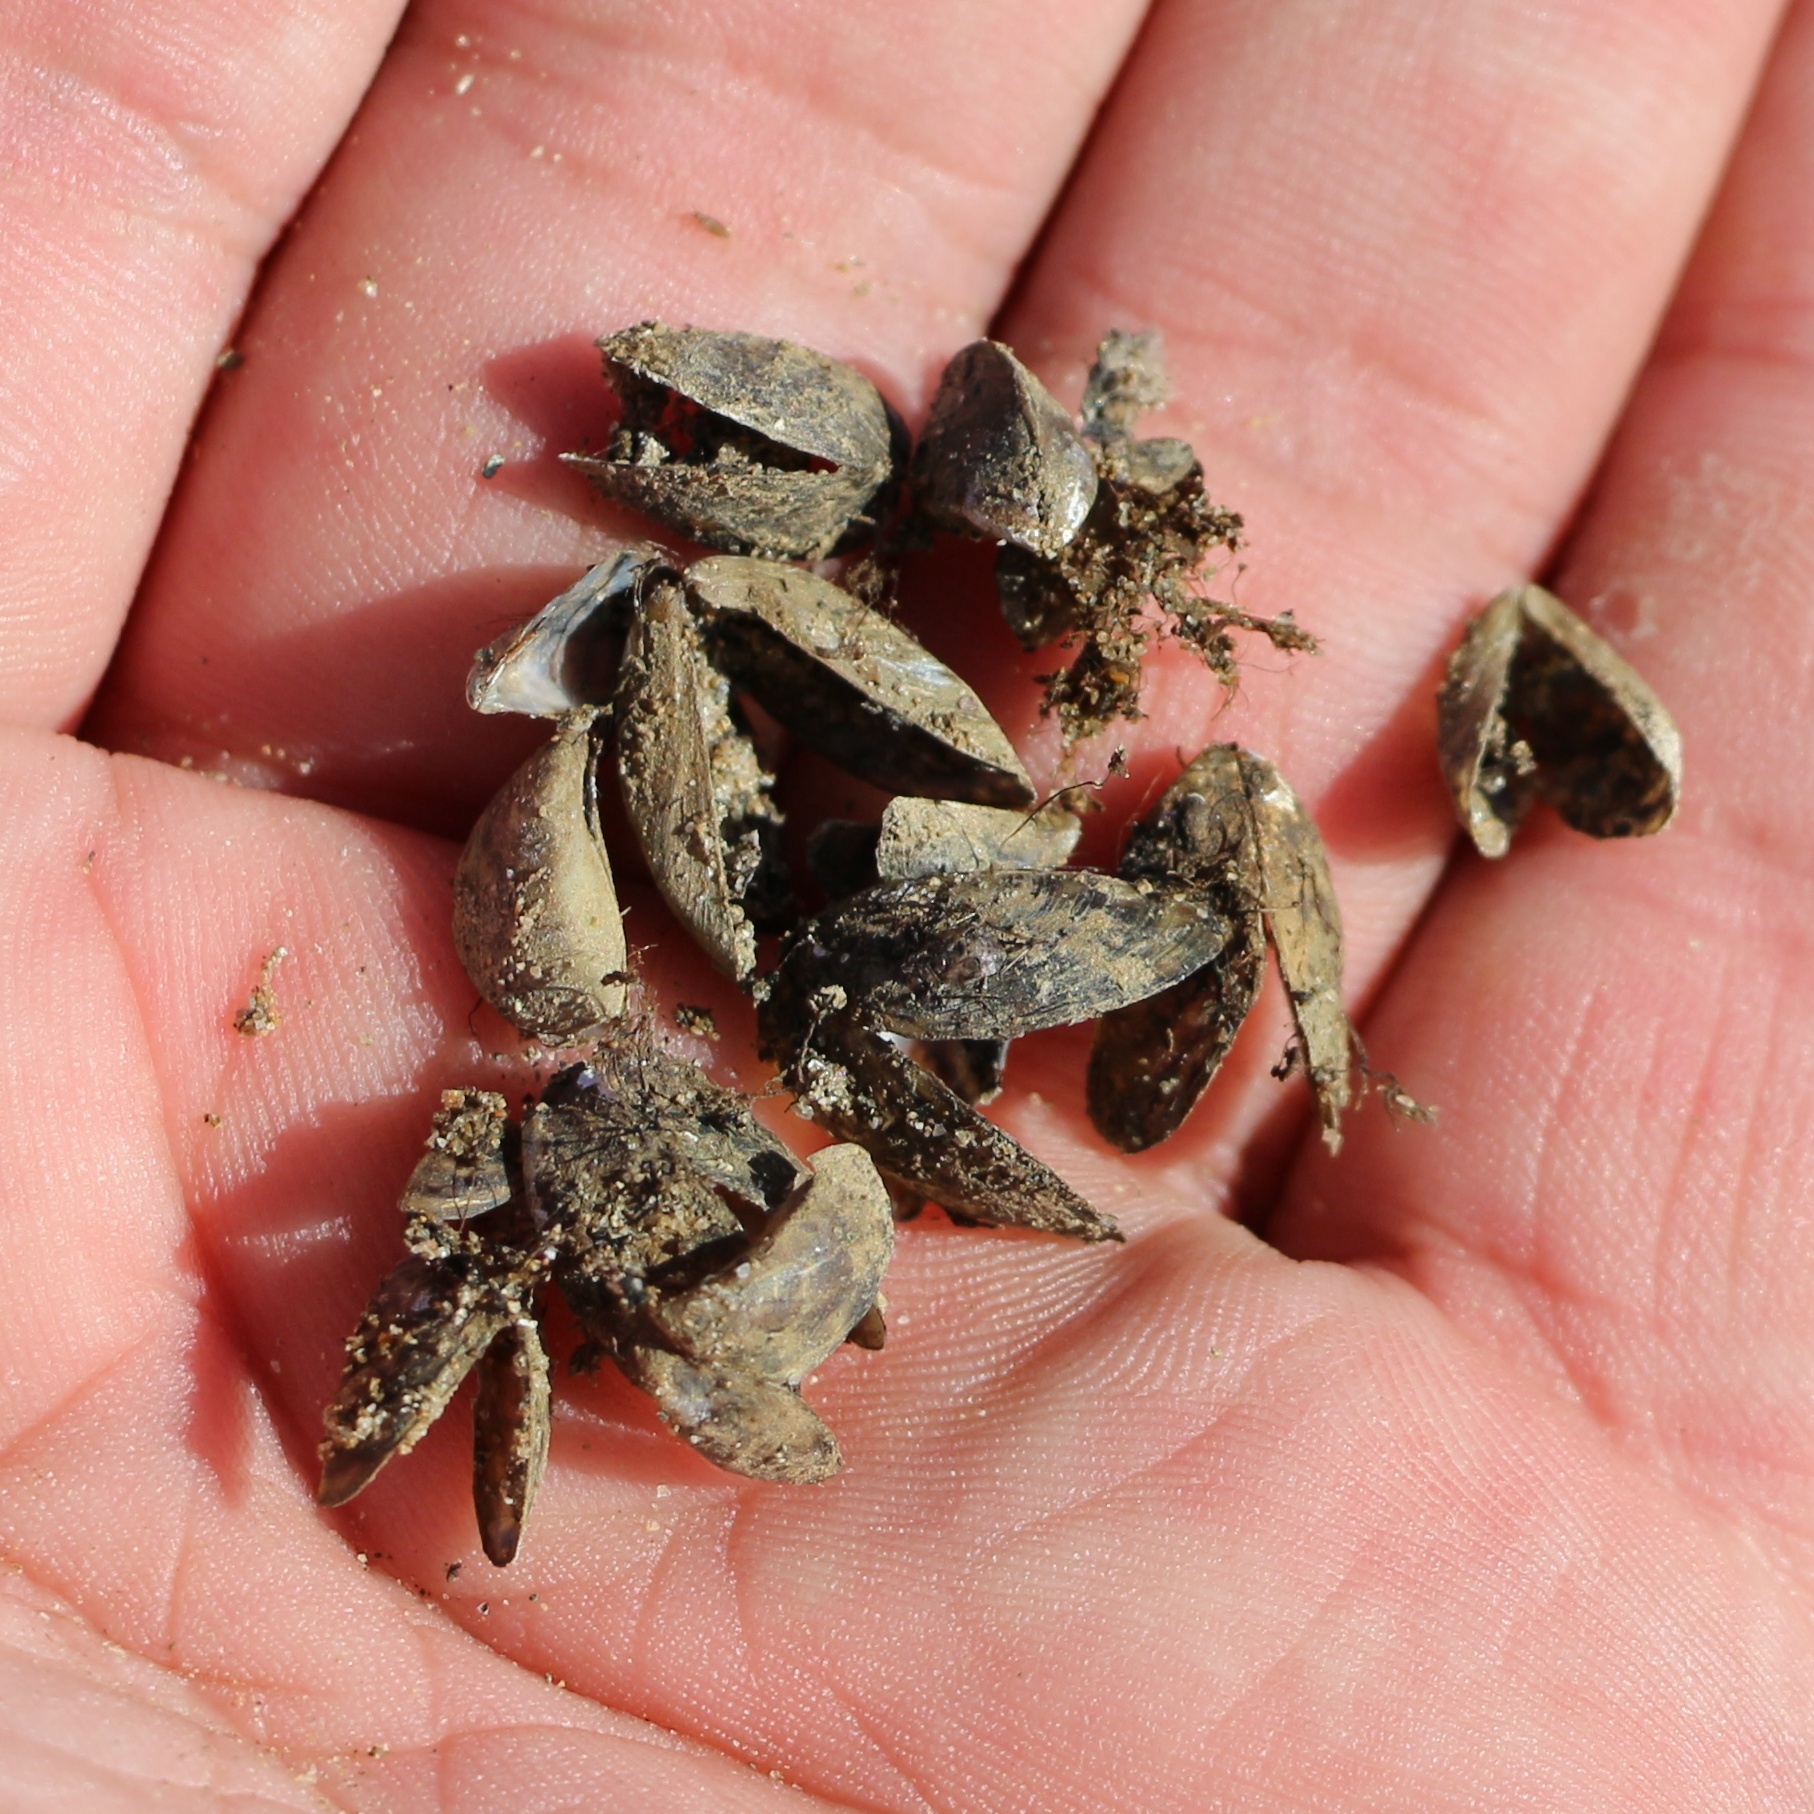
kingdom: Animalia
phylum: Mollusca
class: Bivalvia
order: Myida
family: Dreissenidae
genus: Dreissena
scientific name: Dreissena polymorpha
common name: Zebra mussel
